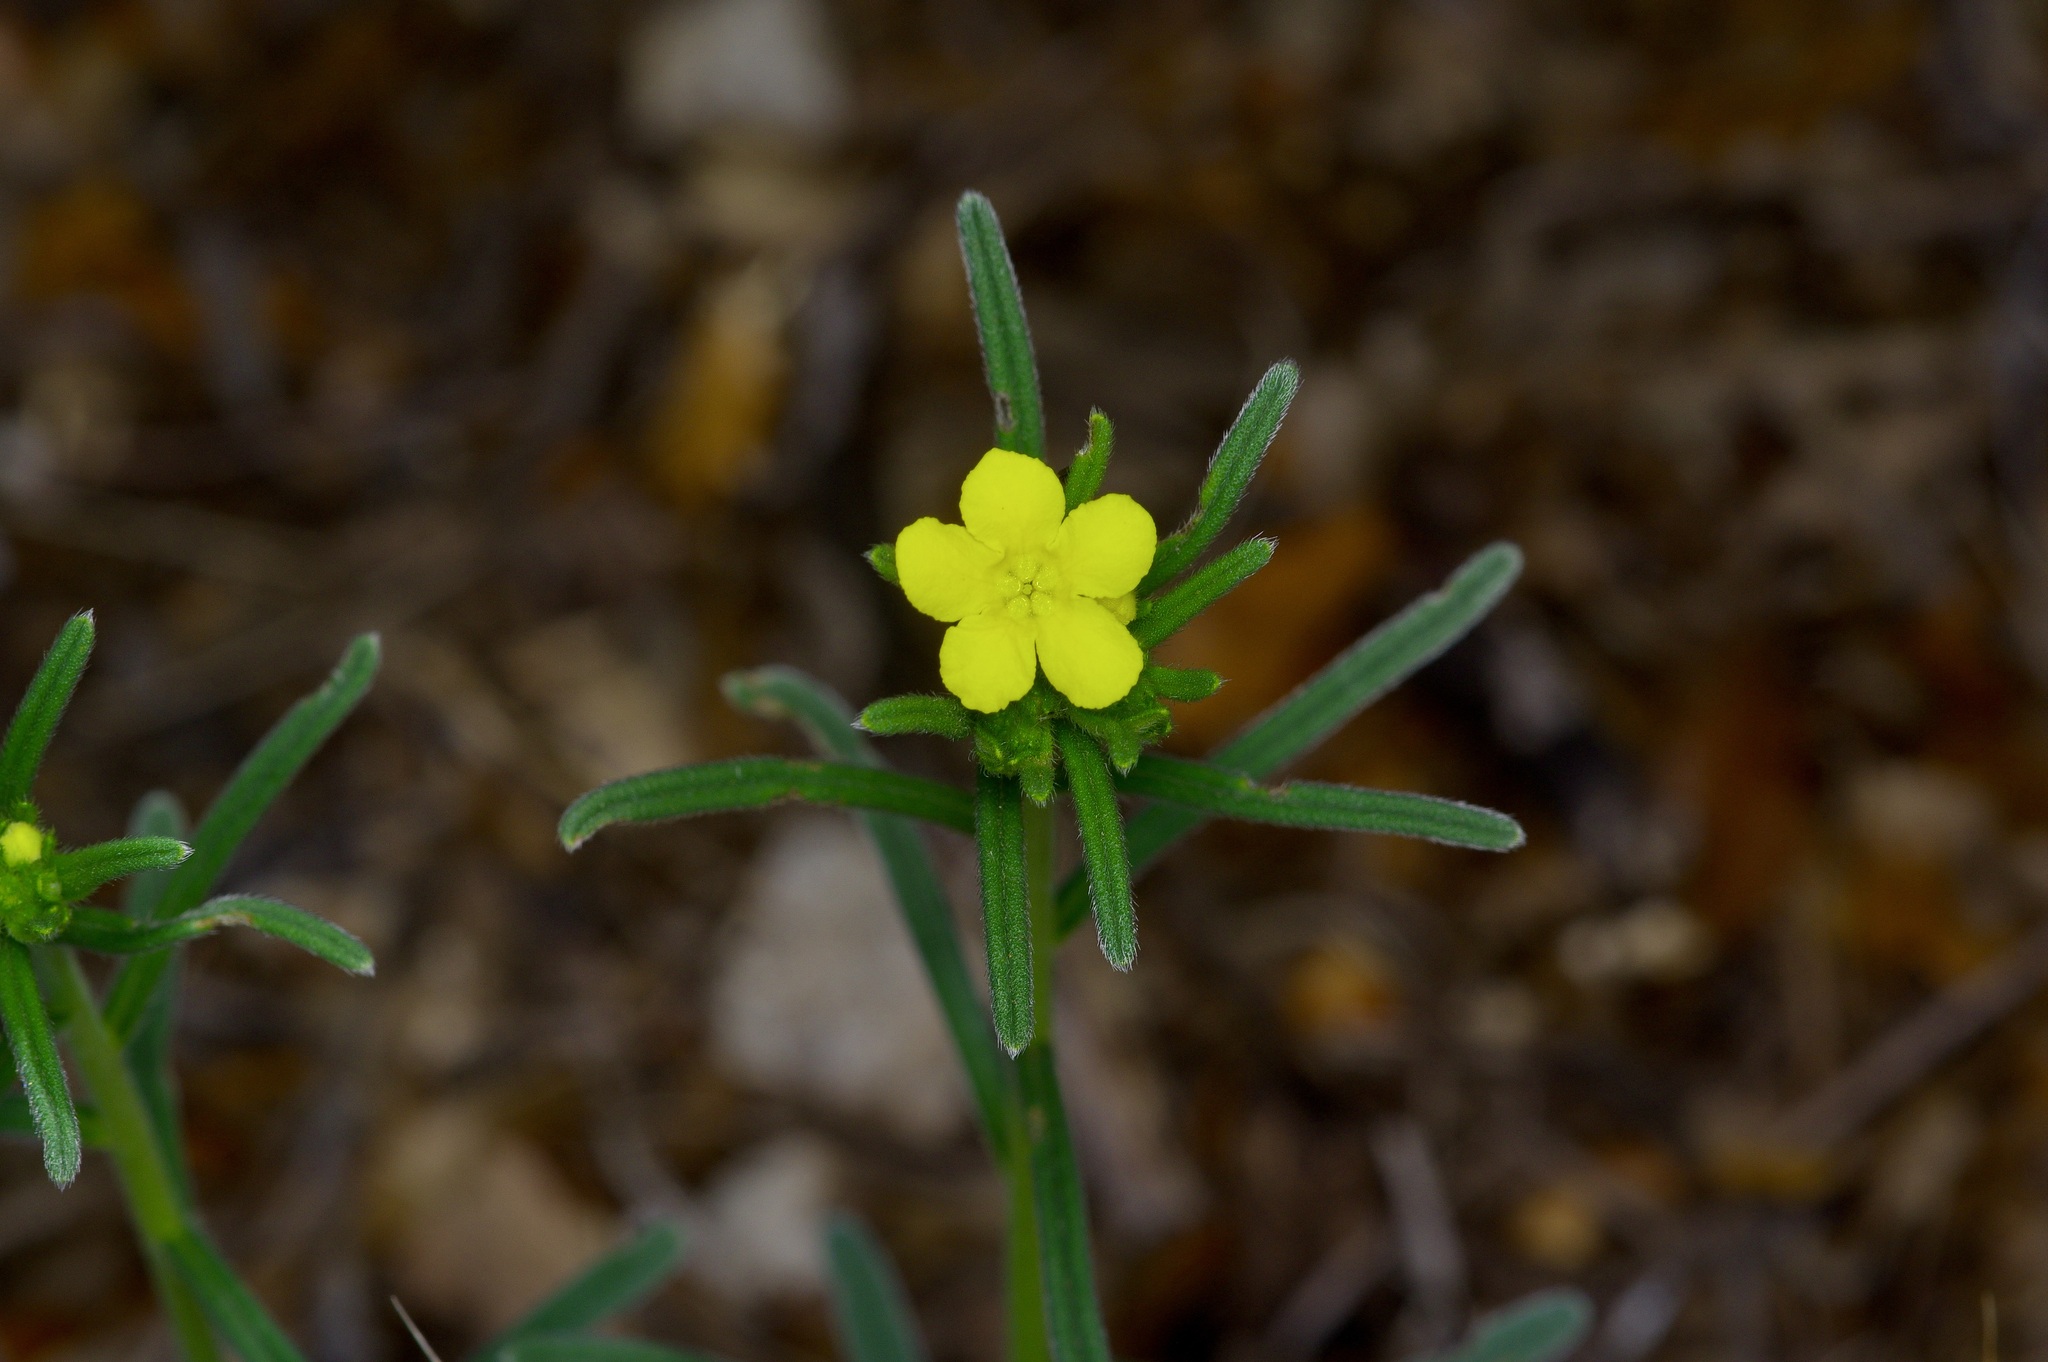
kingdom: Plantae
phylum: Tracheophyta
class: Magnoliopsida
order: Boraginales
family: Boraginaceae
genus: Lithospermum
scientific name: Lithospermum mirabile
